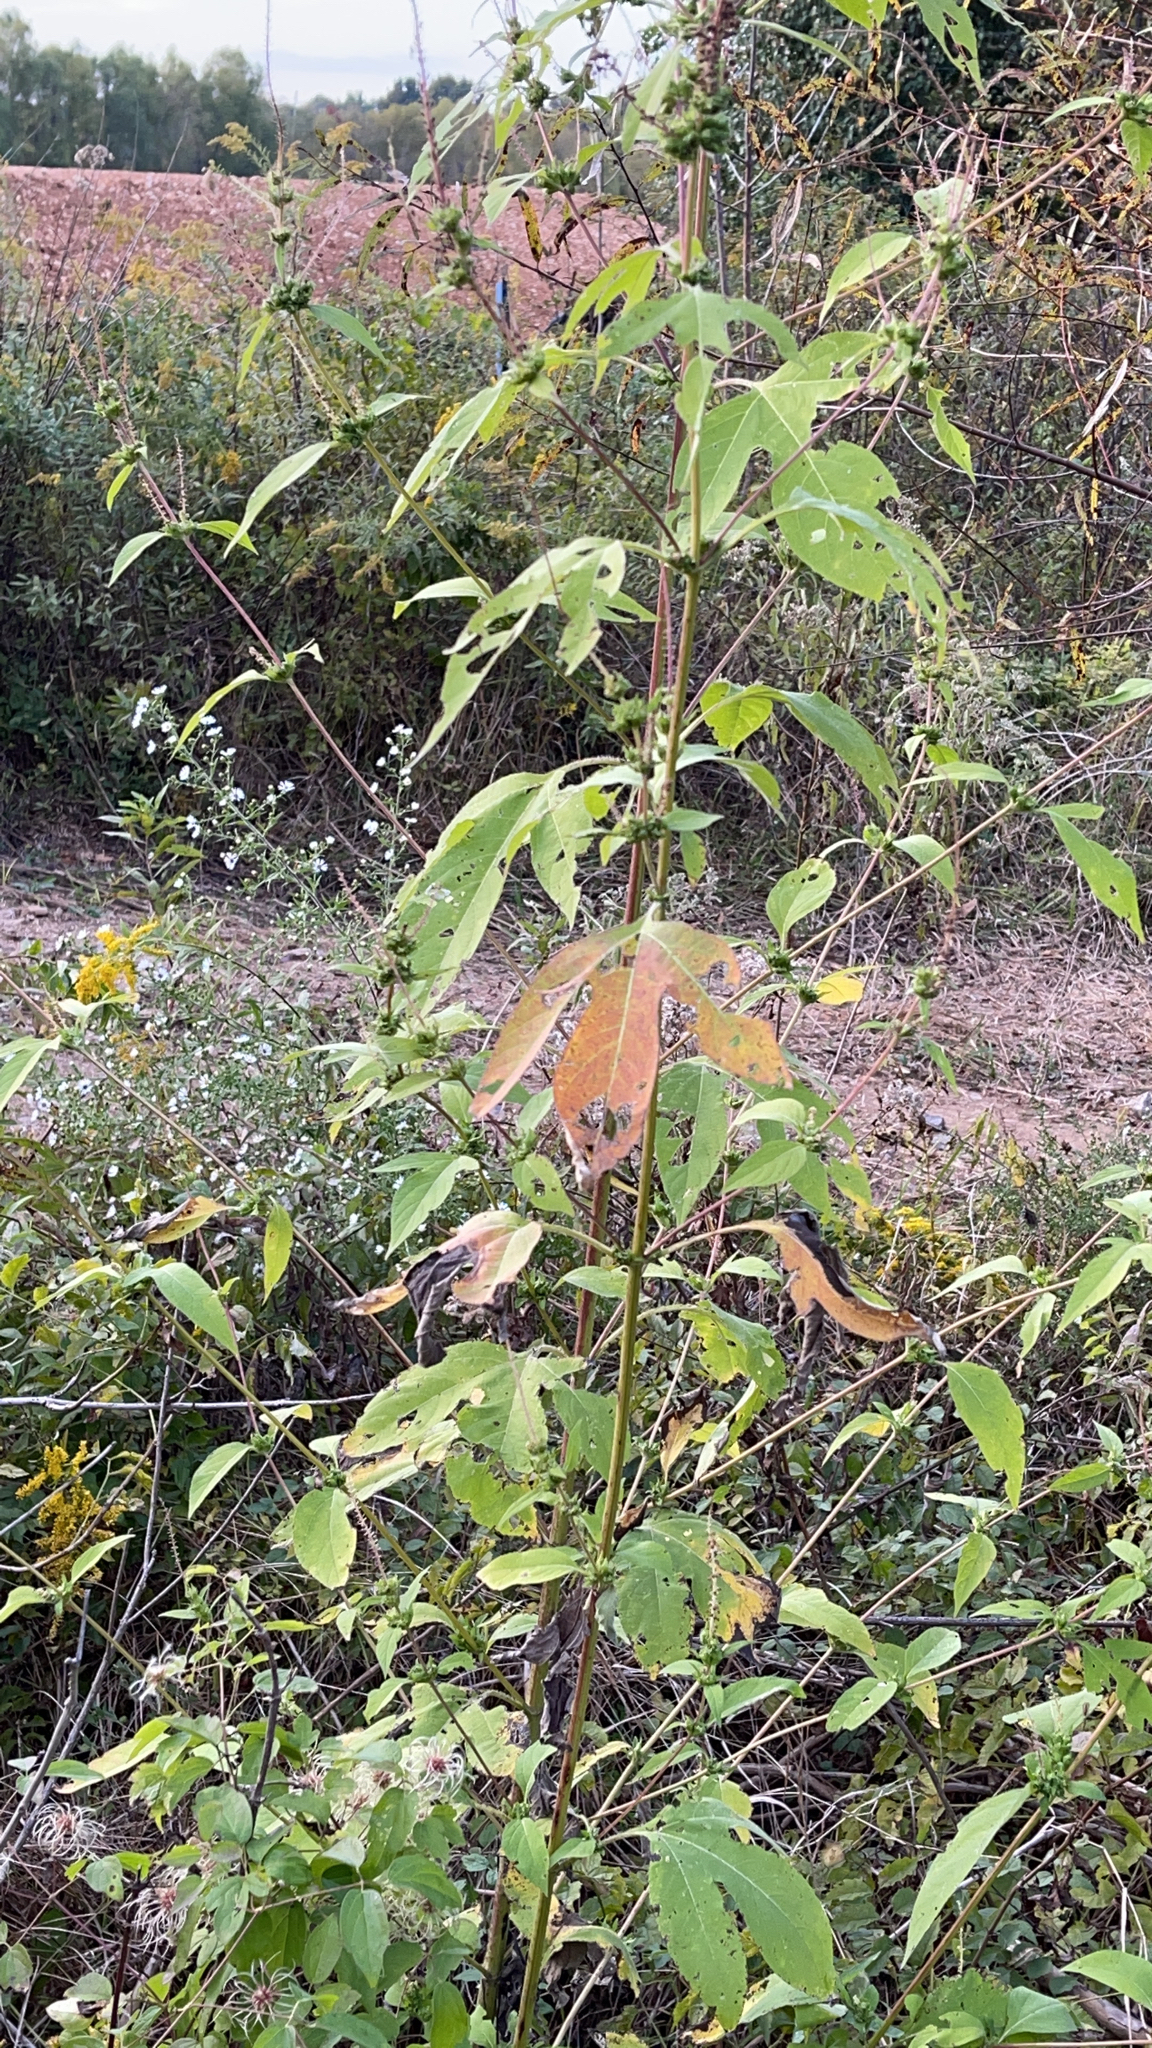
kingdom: Plantae
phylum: Tracheophyta
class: Magnoliopsida
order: Asterales
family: Asteraceae
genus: Ambrosia
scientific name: Ambrosia trifida
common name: Giant ragweed
